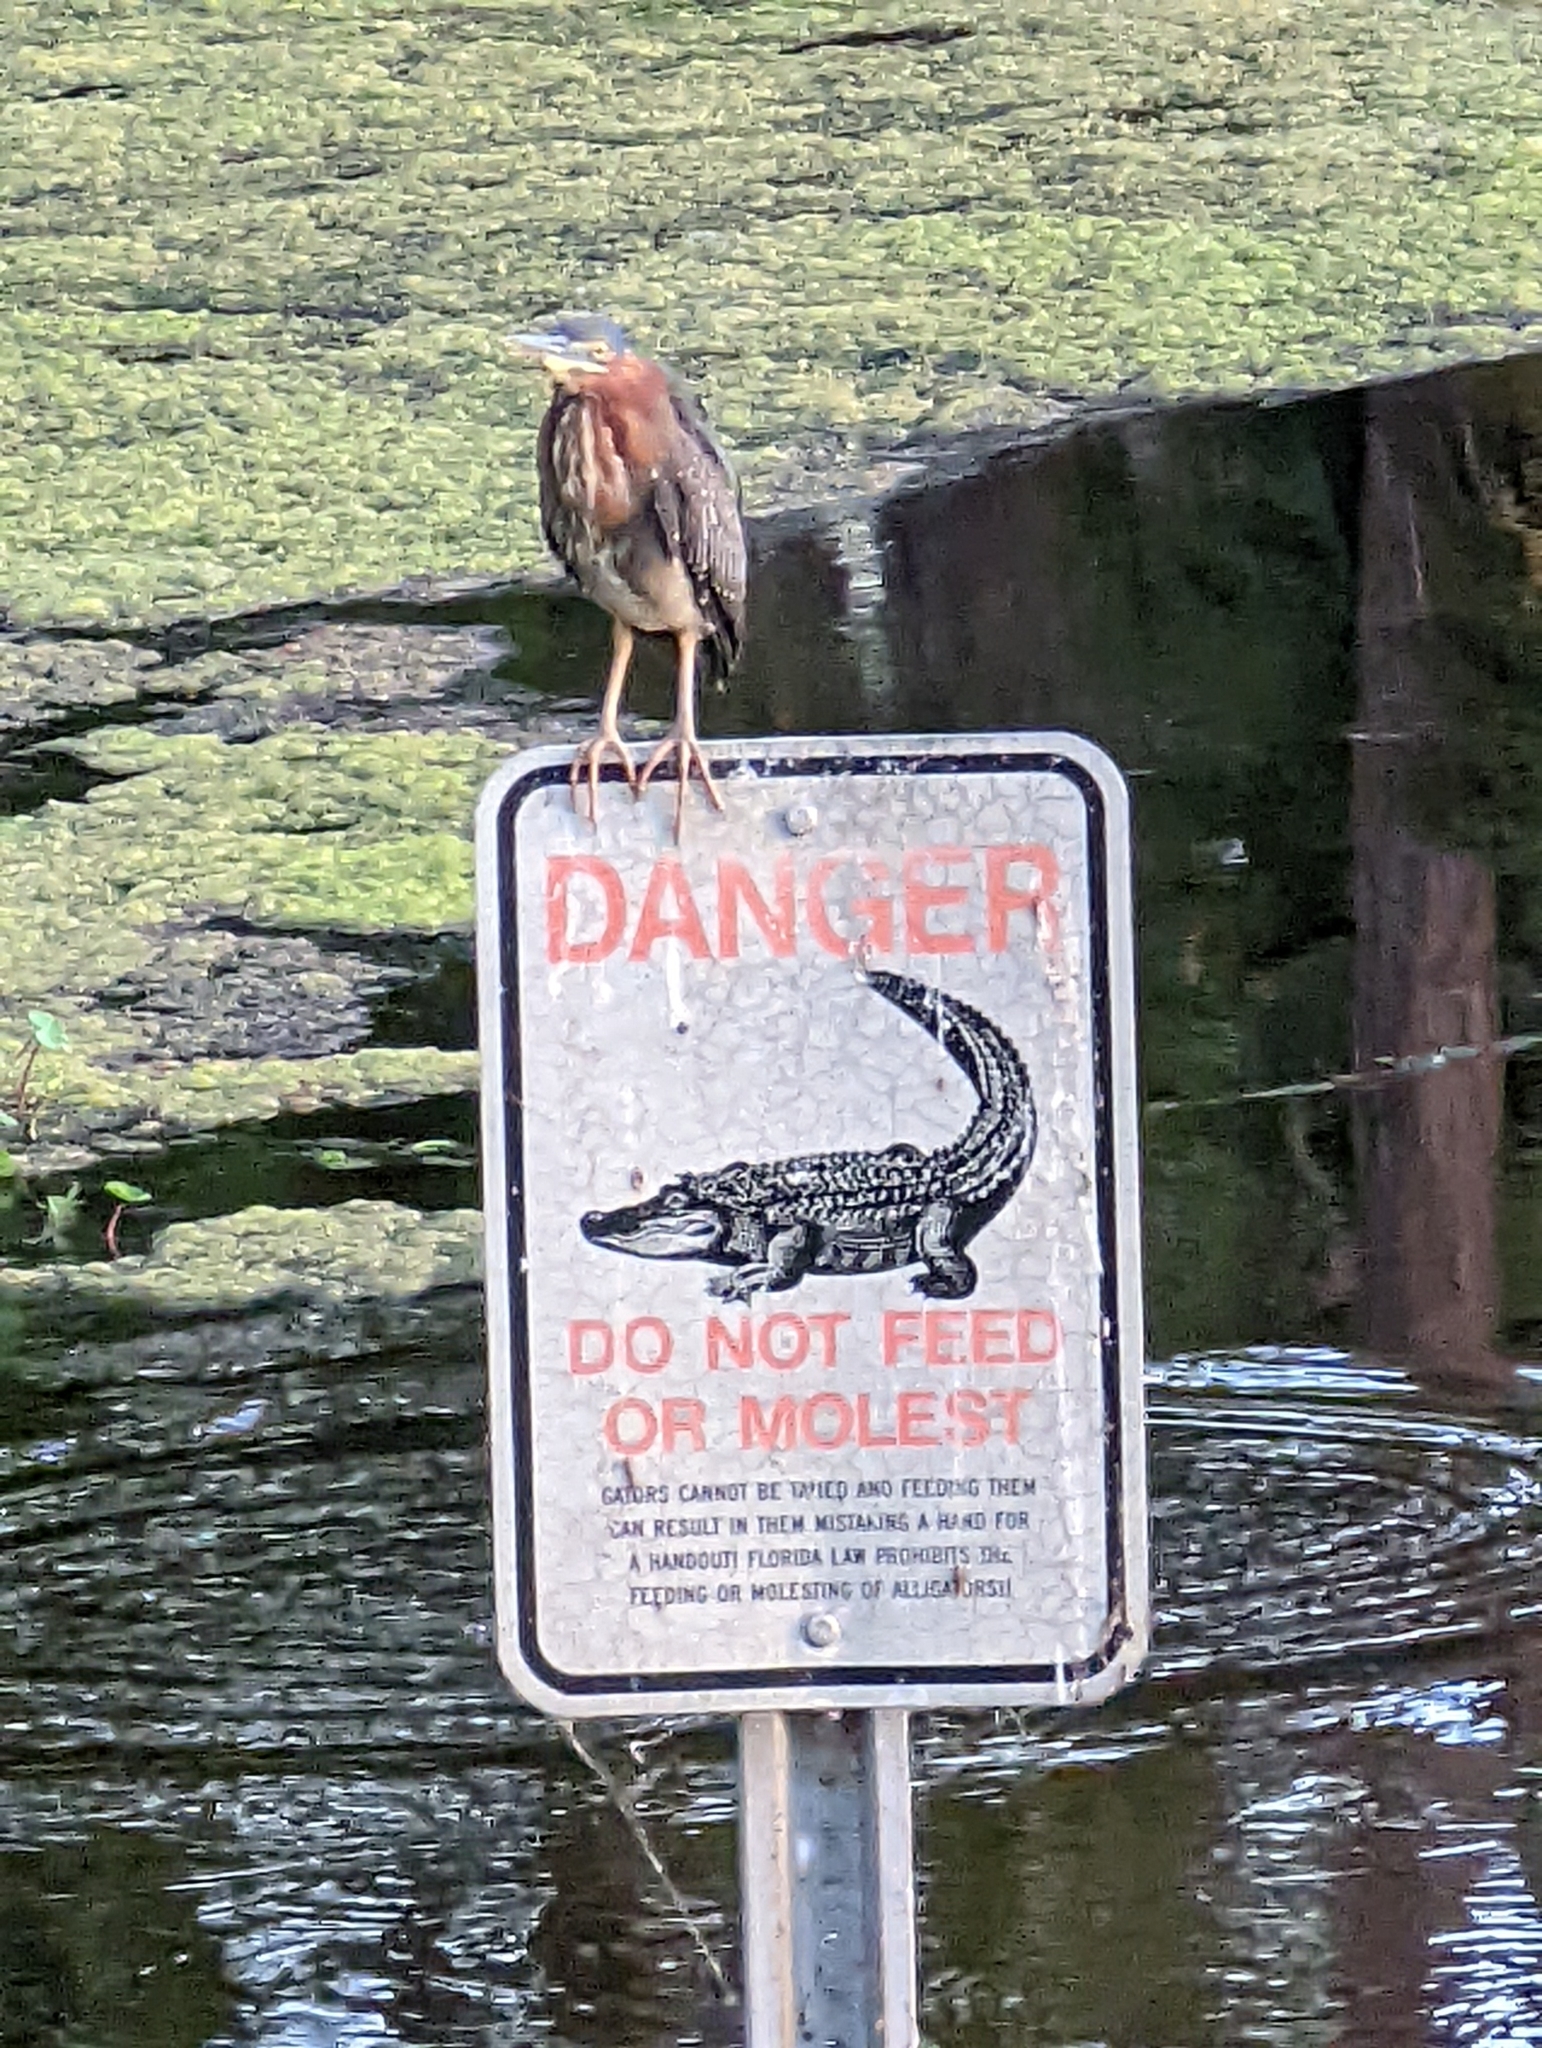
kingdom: Animalia
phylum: Chordata
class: Aves
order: Pelecaniformes
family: Ardeidae
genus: Butorides
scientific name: Butorides virescens
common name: Green heron
